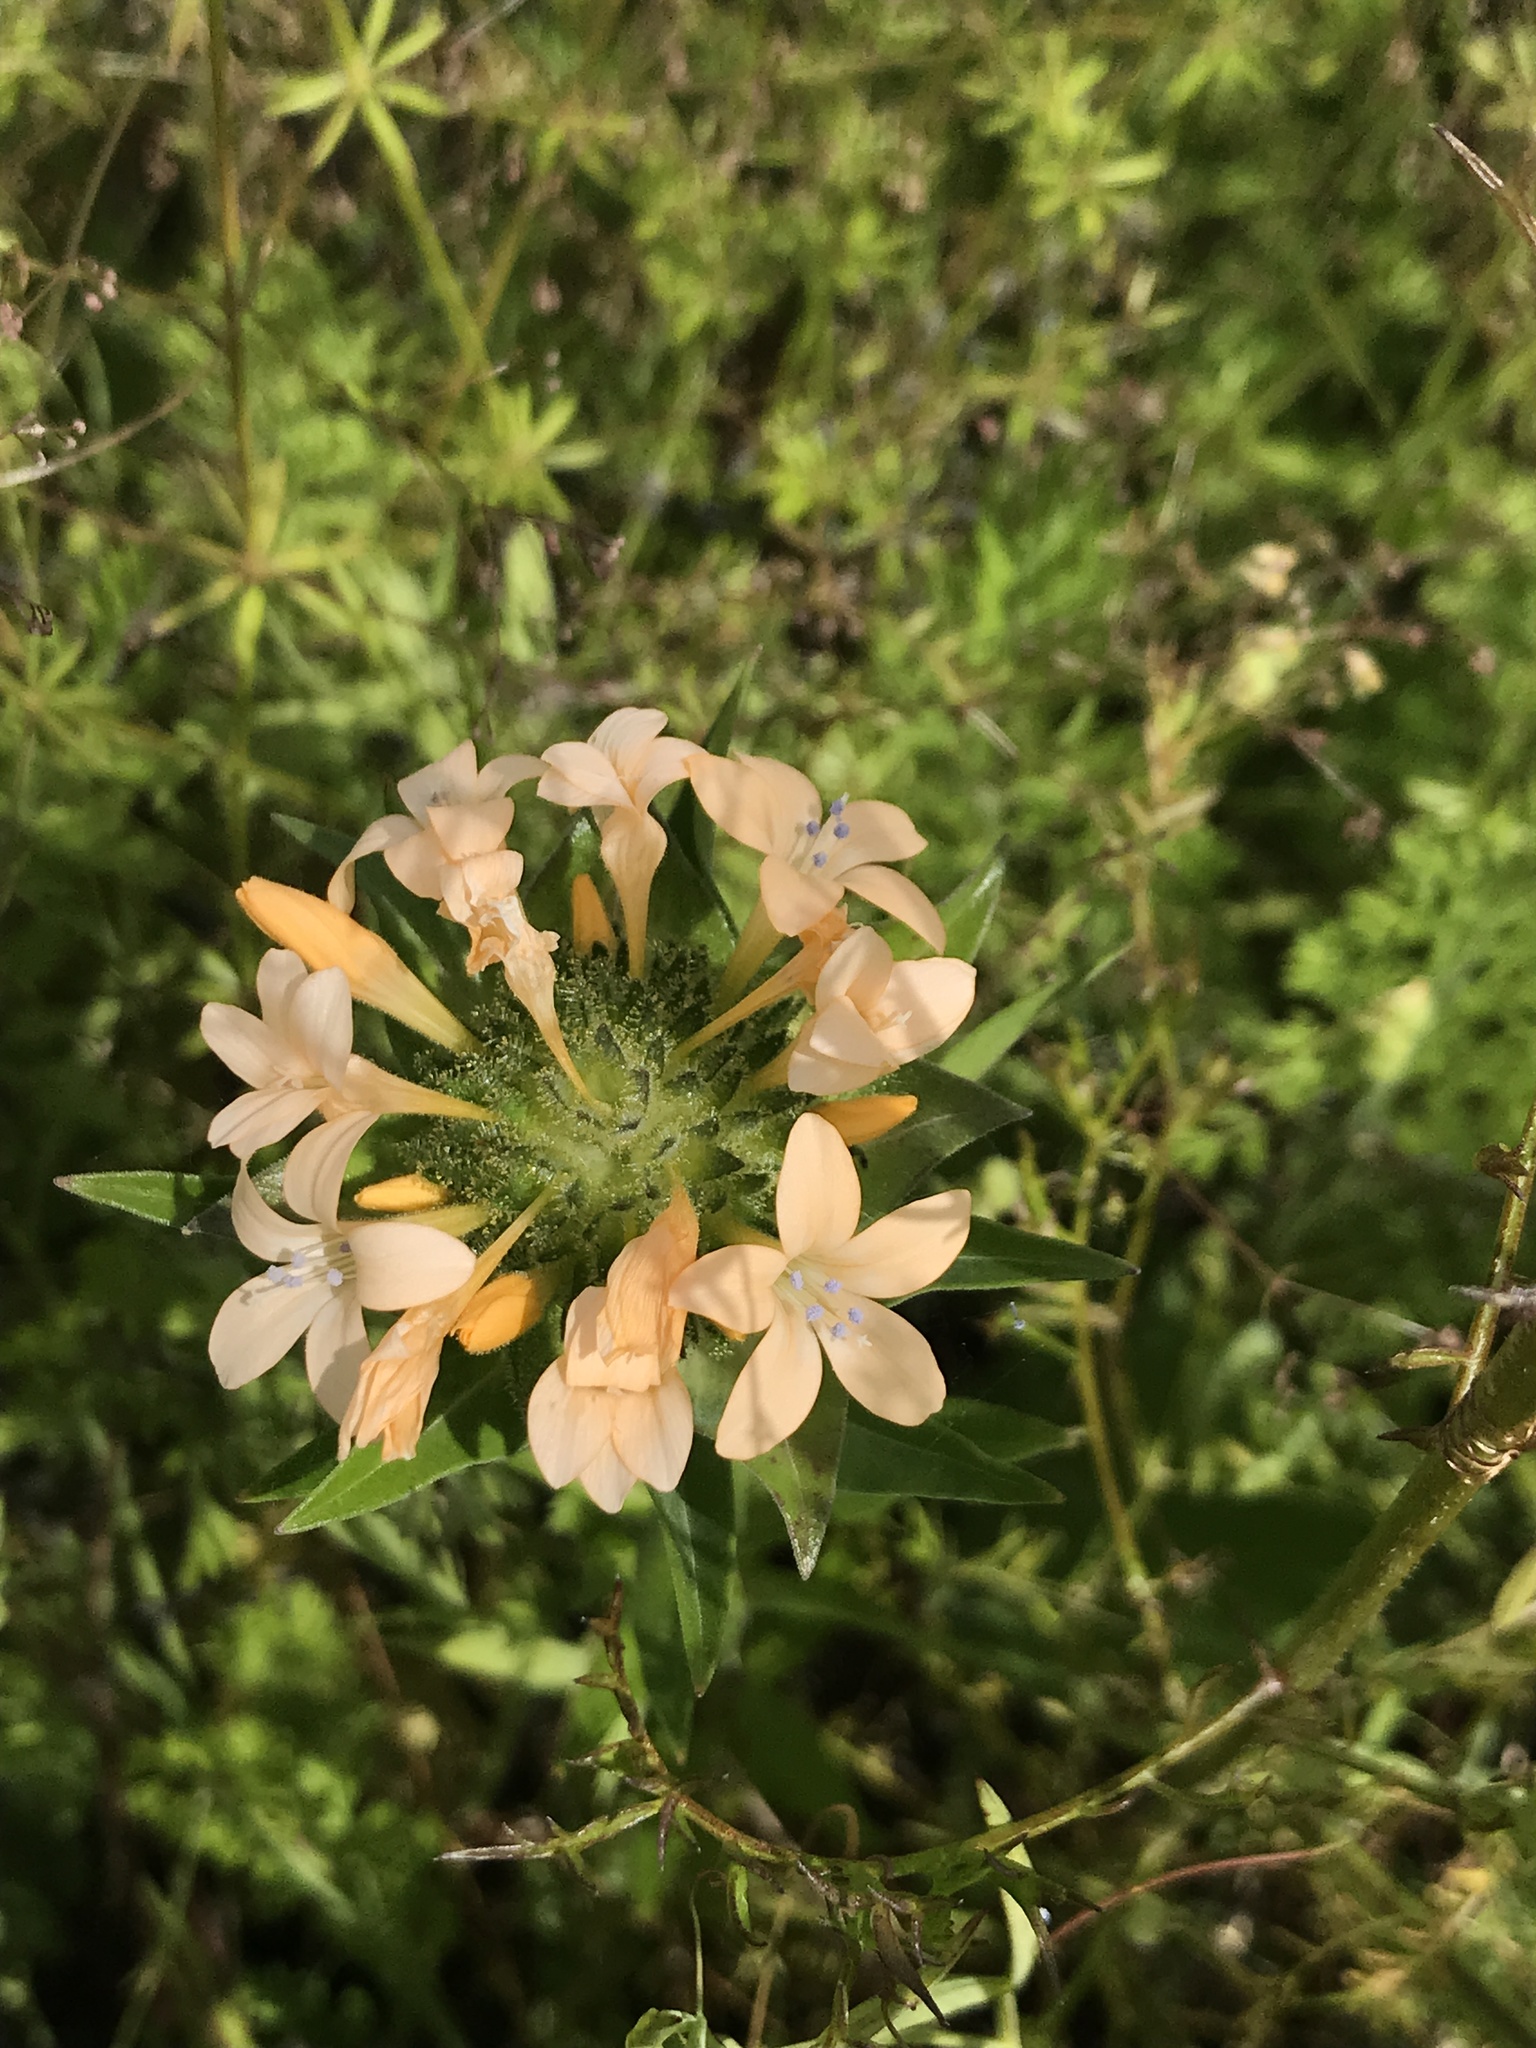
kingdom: Plantae
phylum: Tracheophyta
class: Magnoliopsida
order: Ericales
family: Polemoniaceae
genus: Collomia
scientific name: Collomia grandiflora
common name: California strawflower
